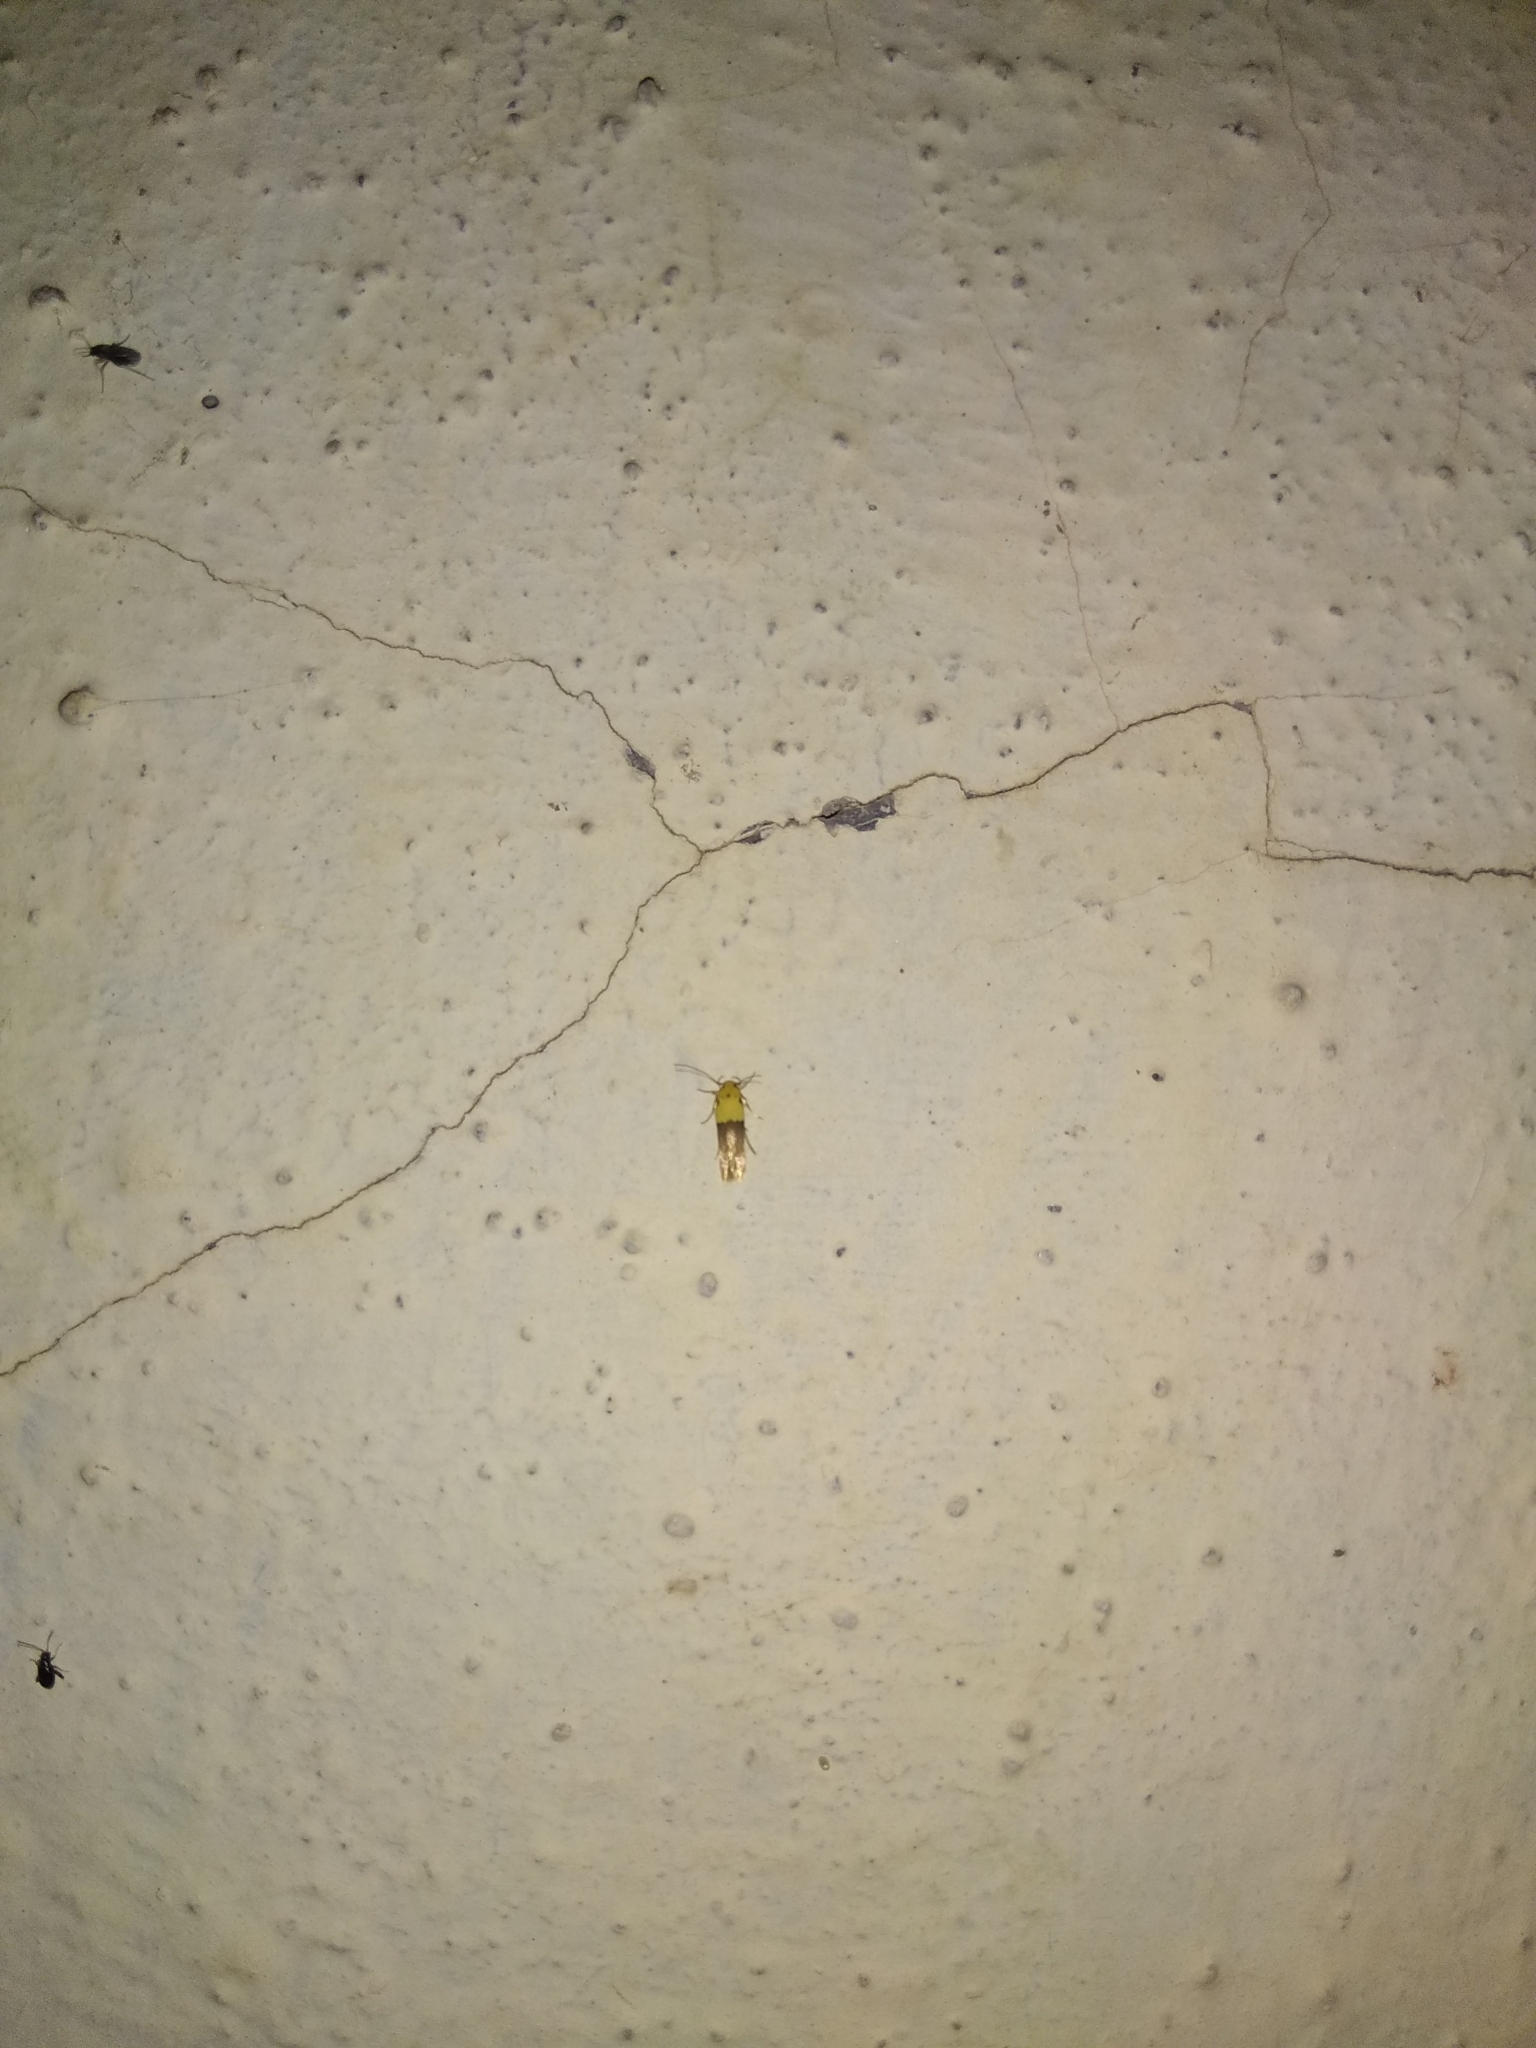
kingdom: Animalia
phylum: Arthropoda
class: Insecta
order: Lepidoptera
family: Stathmopodidae
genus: Stathmopoda
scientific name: Stathmopoda auriferella
